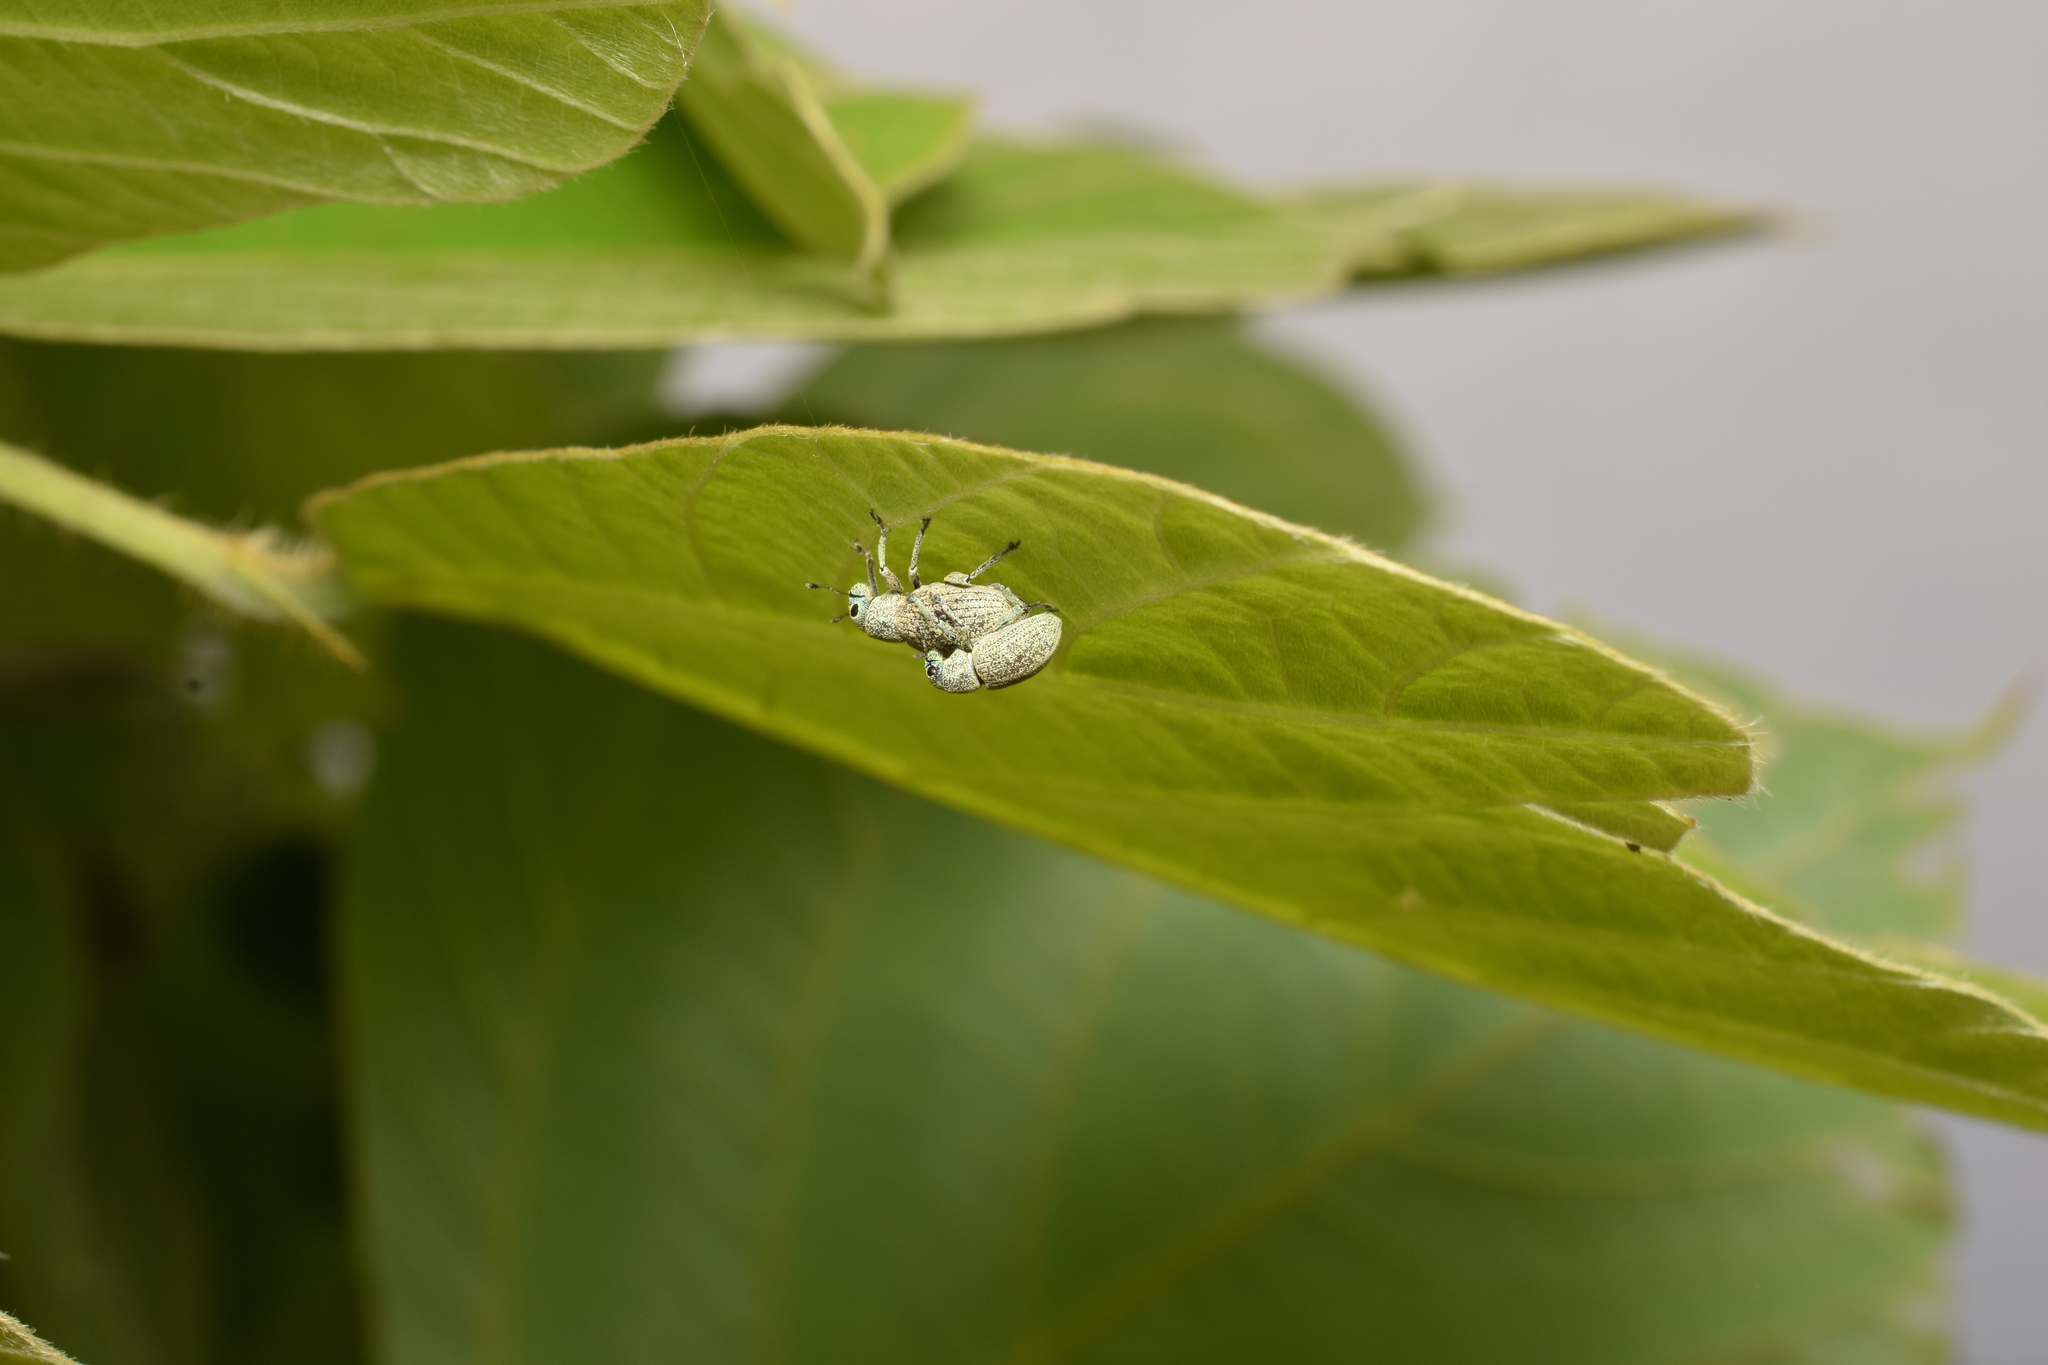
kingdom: Animalia
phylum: Arthropoda
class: Insecta
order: Coleoptera
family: Curculionidae
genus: Eugnathus
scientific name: Eugnathus distinctus
